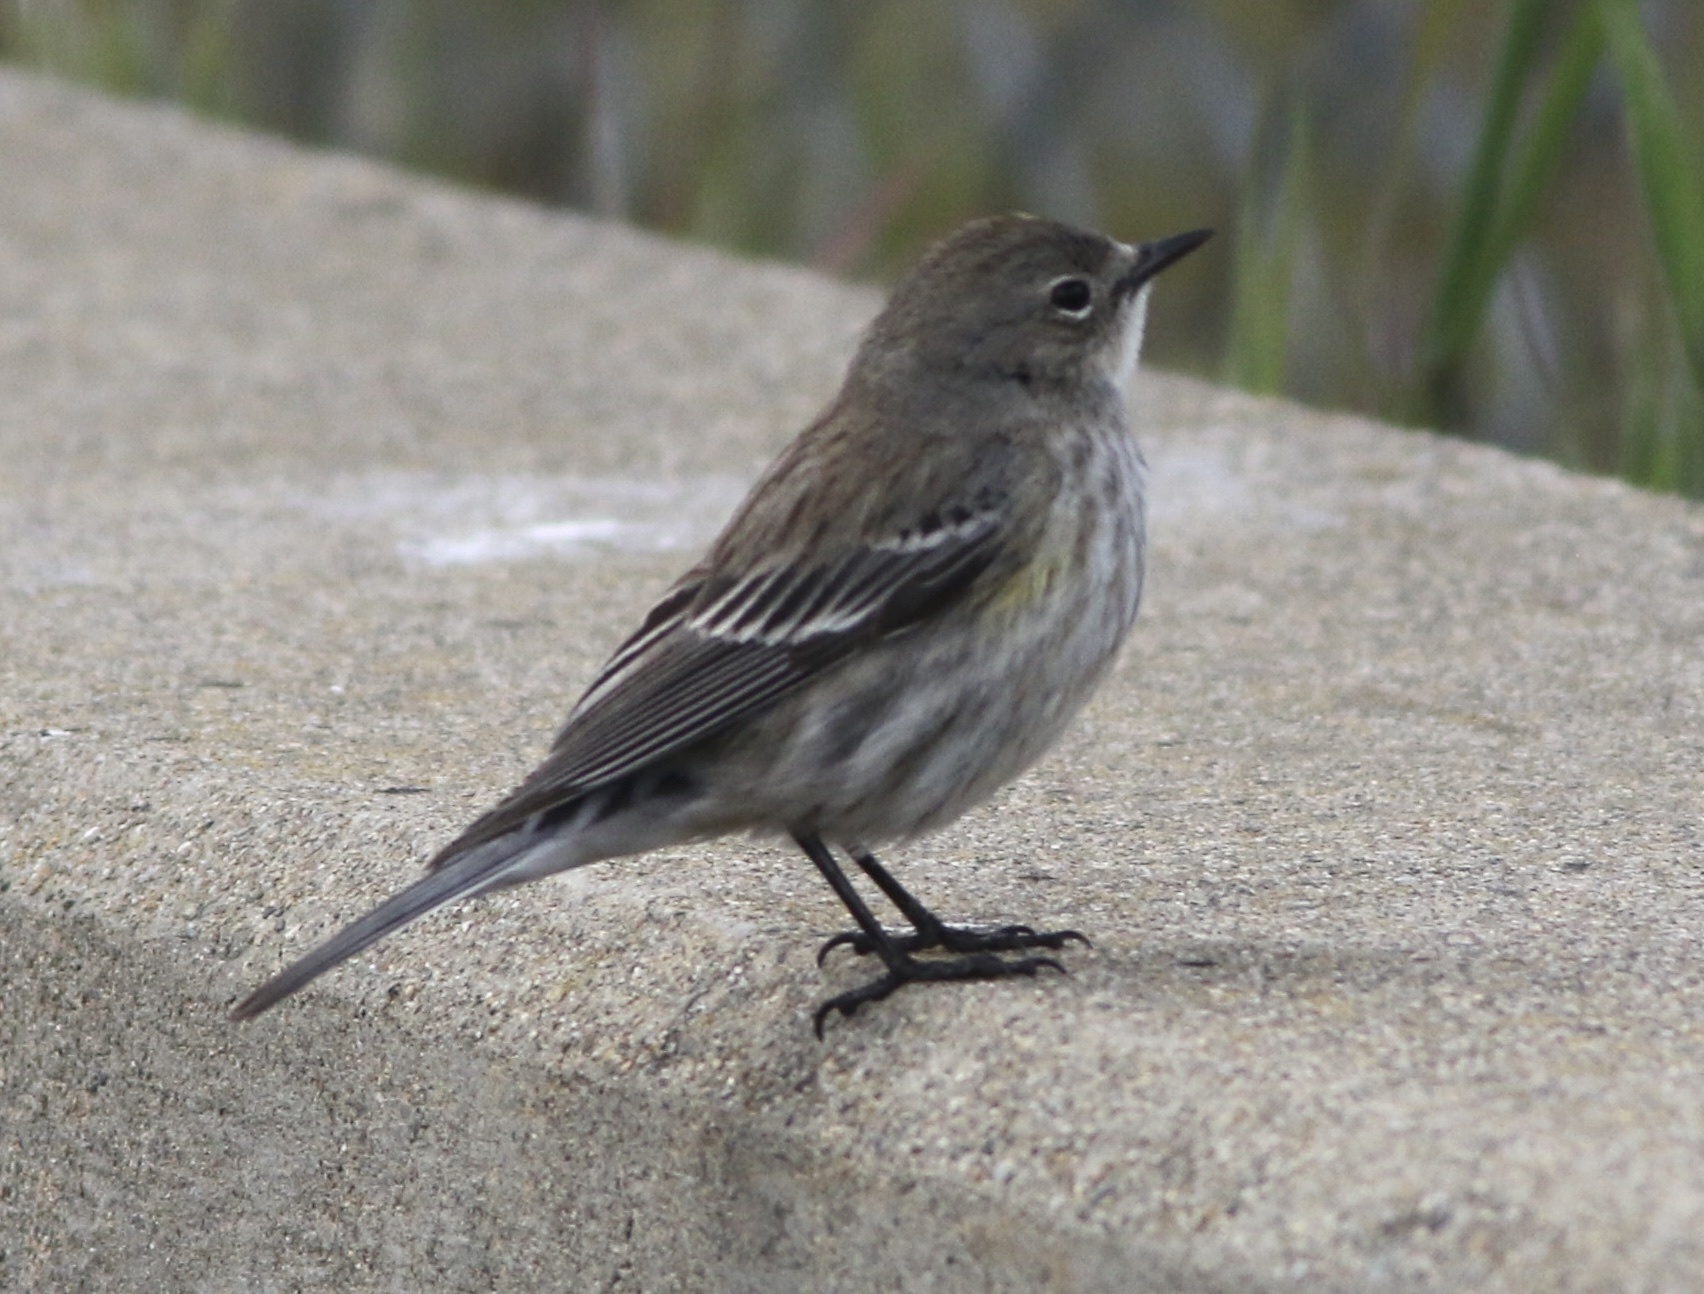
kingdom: Animalia
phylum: Chordata
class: Aves
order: Passeriformes
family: Parulidae
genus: Setophaga
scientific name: Setophaga coronata
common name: Myrtle warbler
